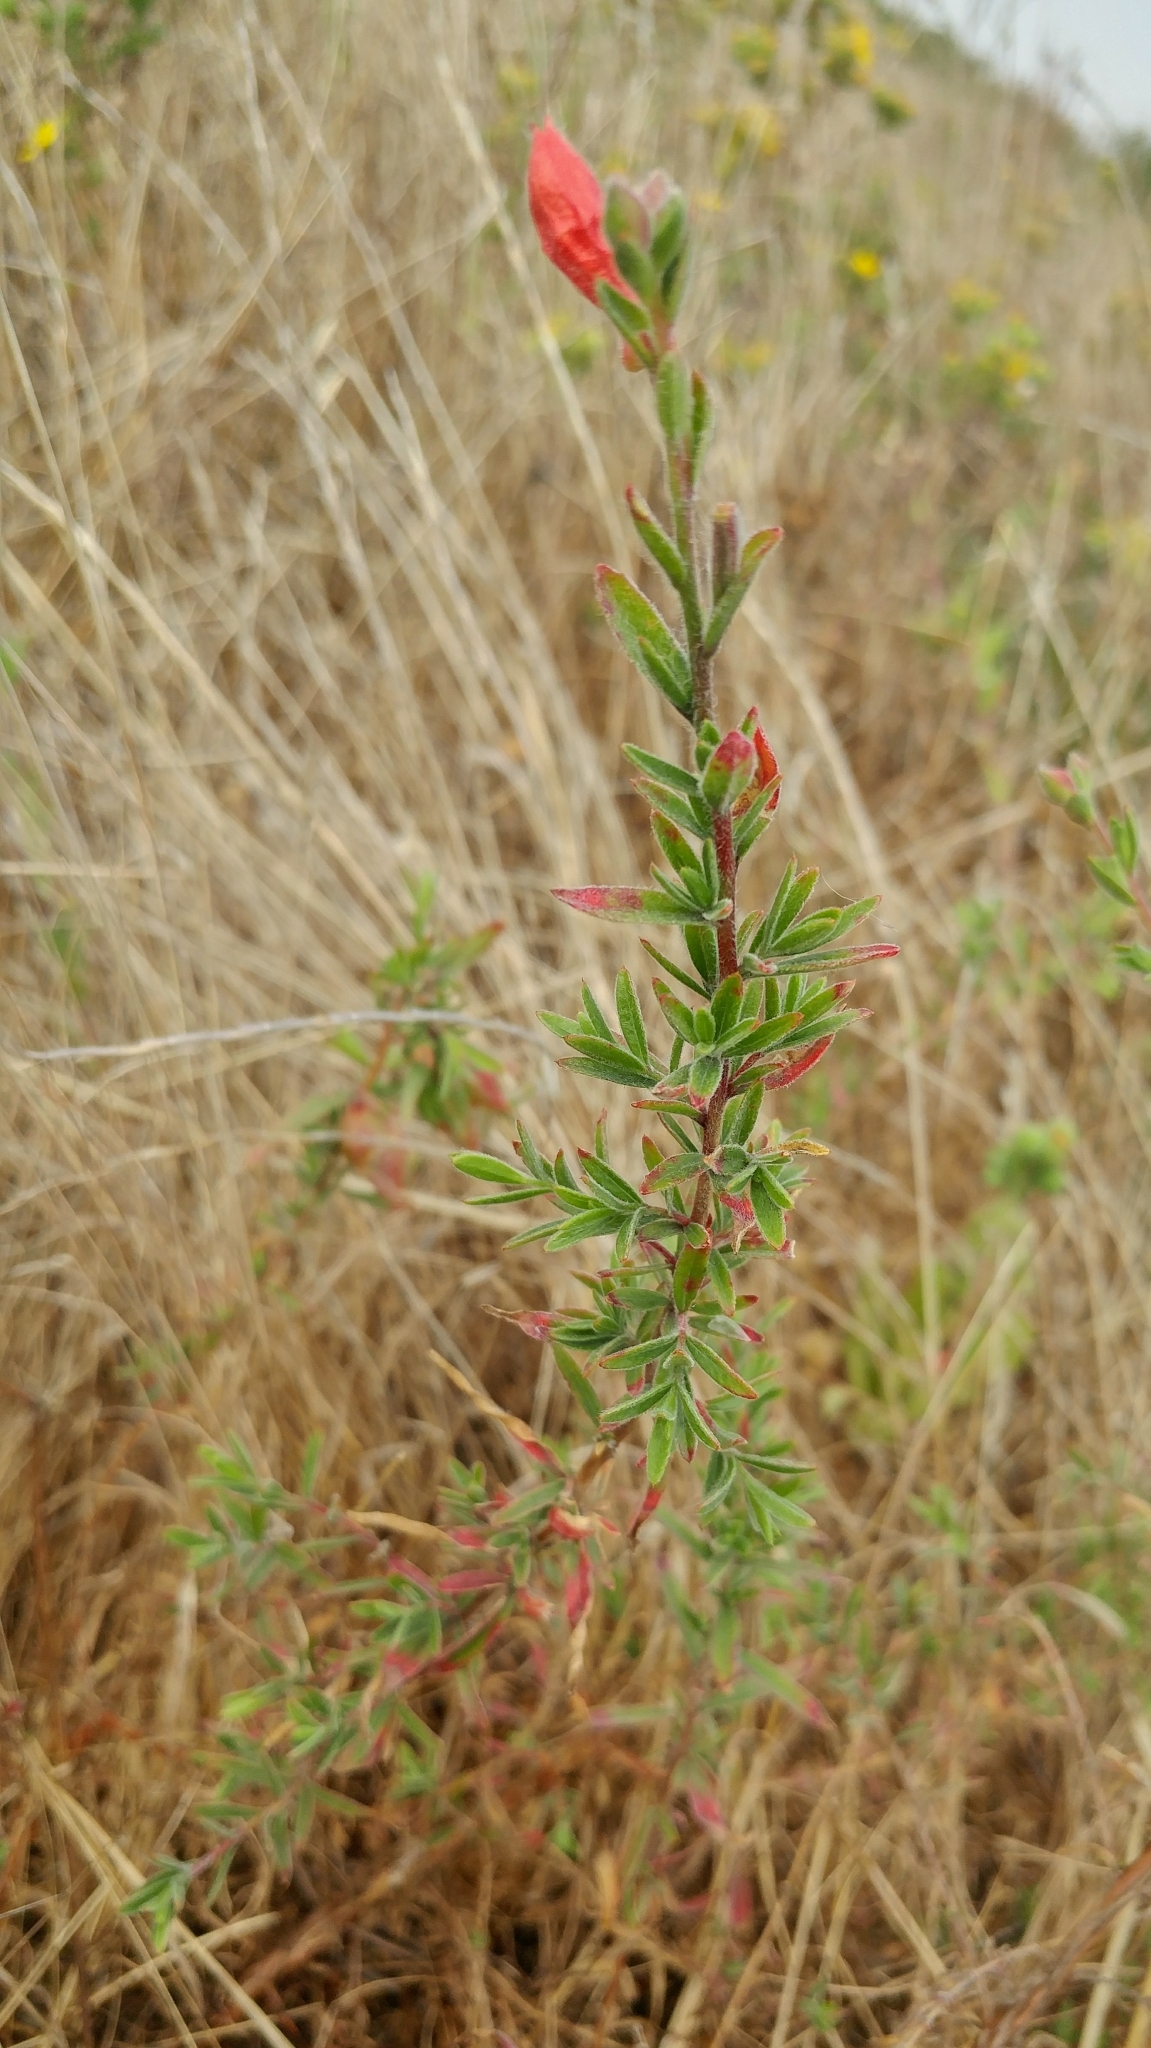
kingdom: Plantae
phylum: Tracheophyta
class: Magnoliopsida
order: Myrtales
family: Onagraceae
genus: Epilobium
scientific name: Epilobium canum
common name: California-fuchsia
